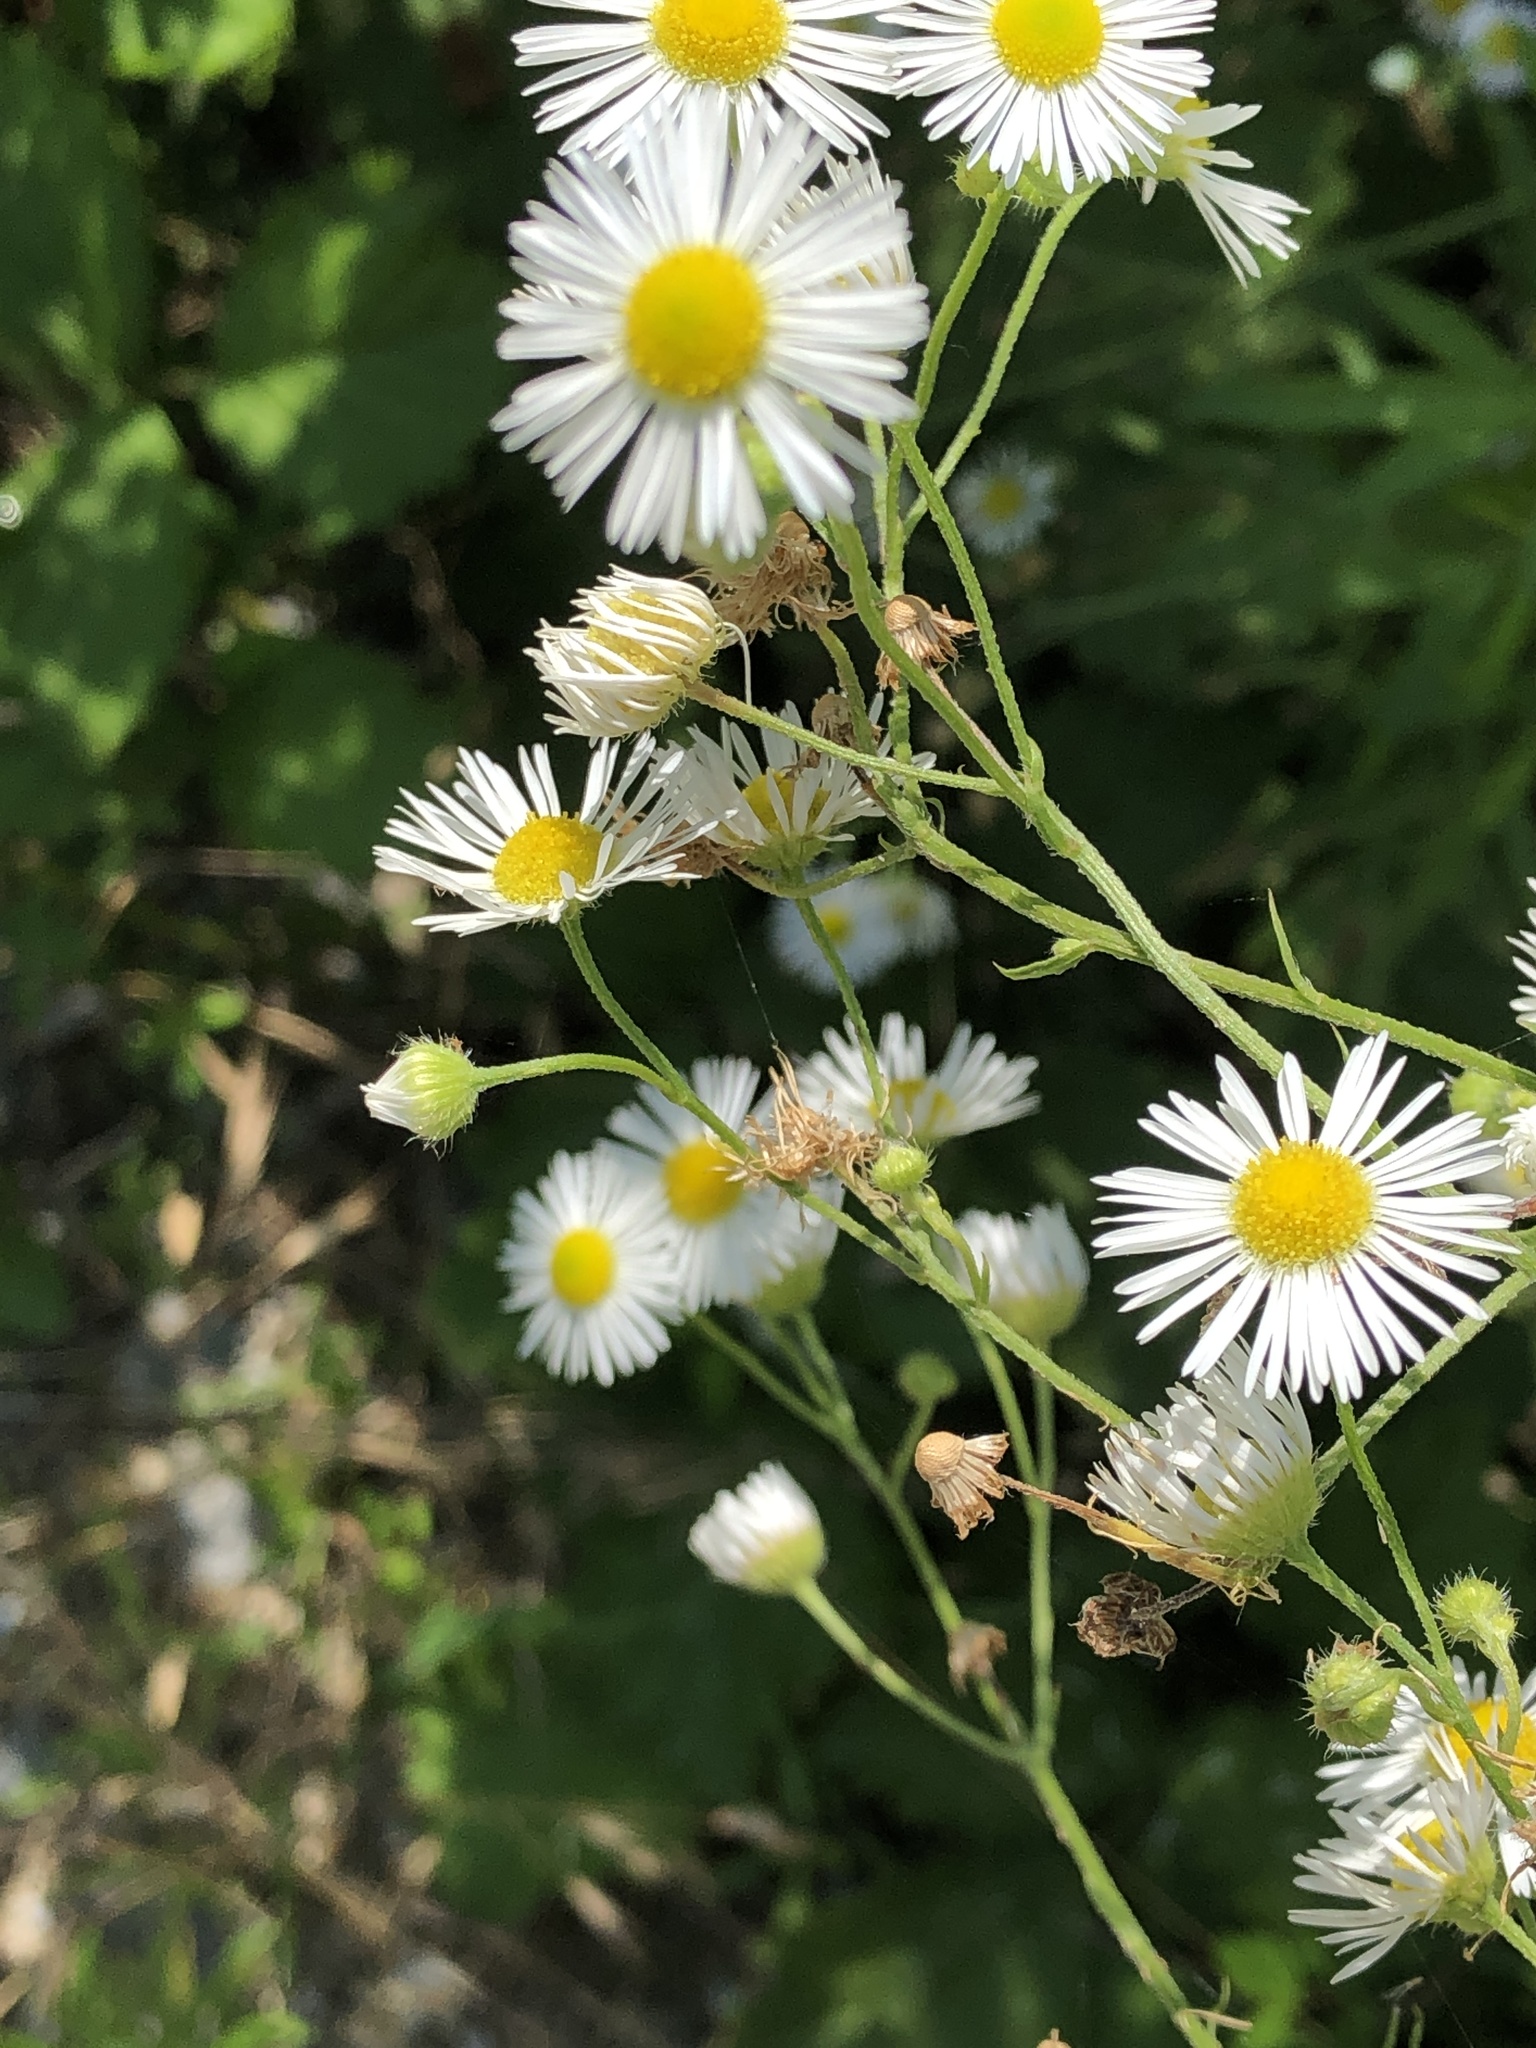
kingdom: Plantae
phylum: Tracheophyta
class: Magnoliopsida
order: Asterales
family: Asteraceae
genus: Erigeron
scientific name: Erigeron annuus
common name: Tall fleabane
